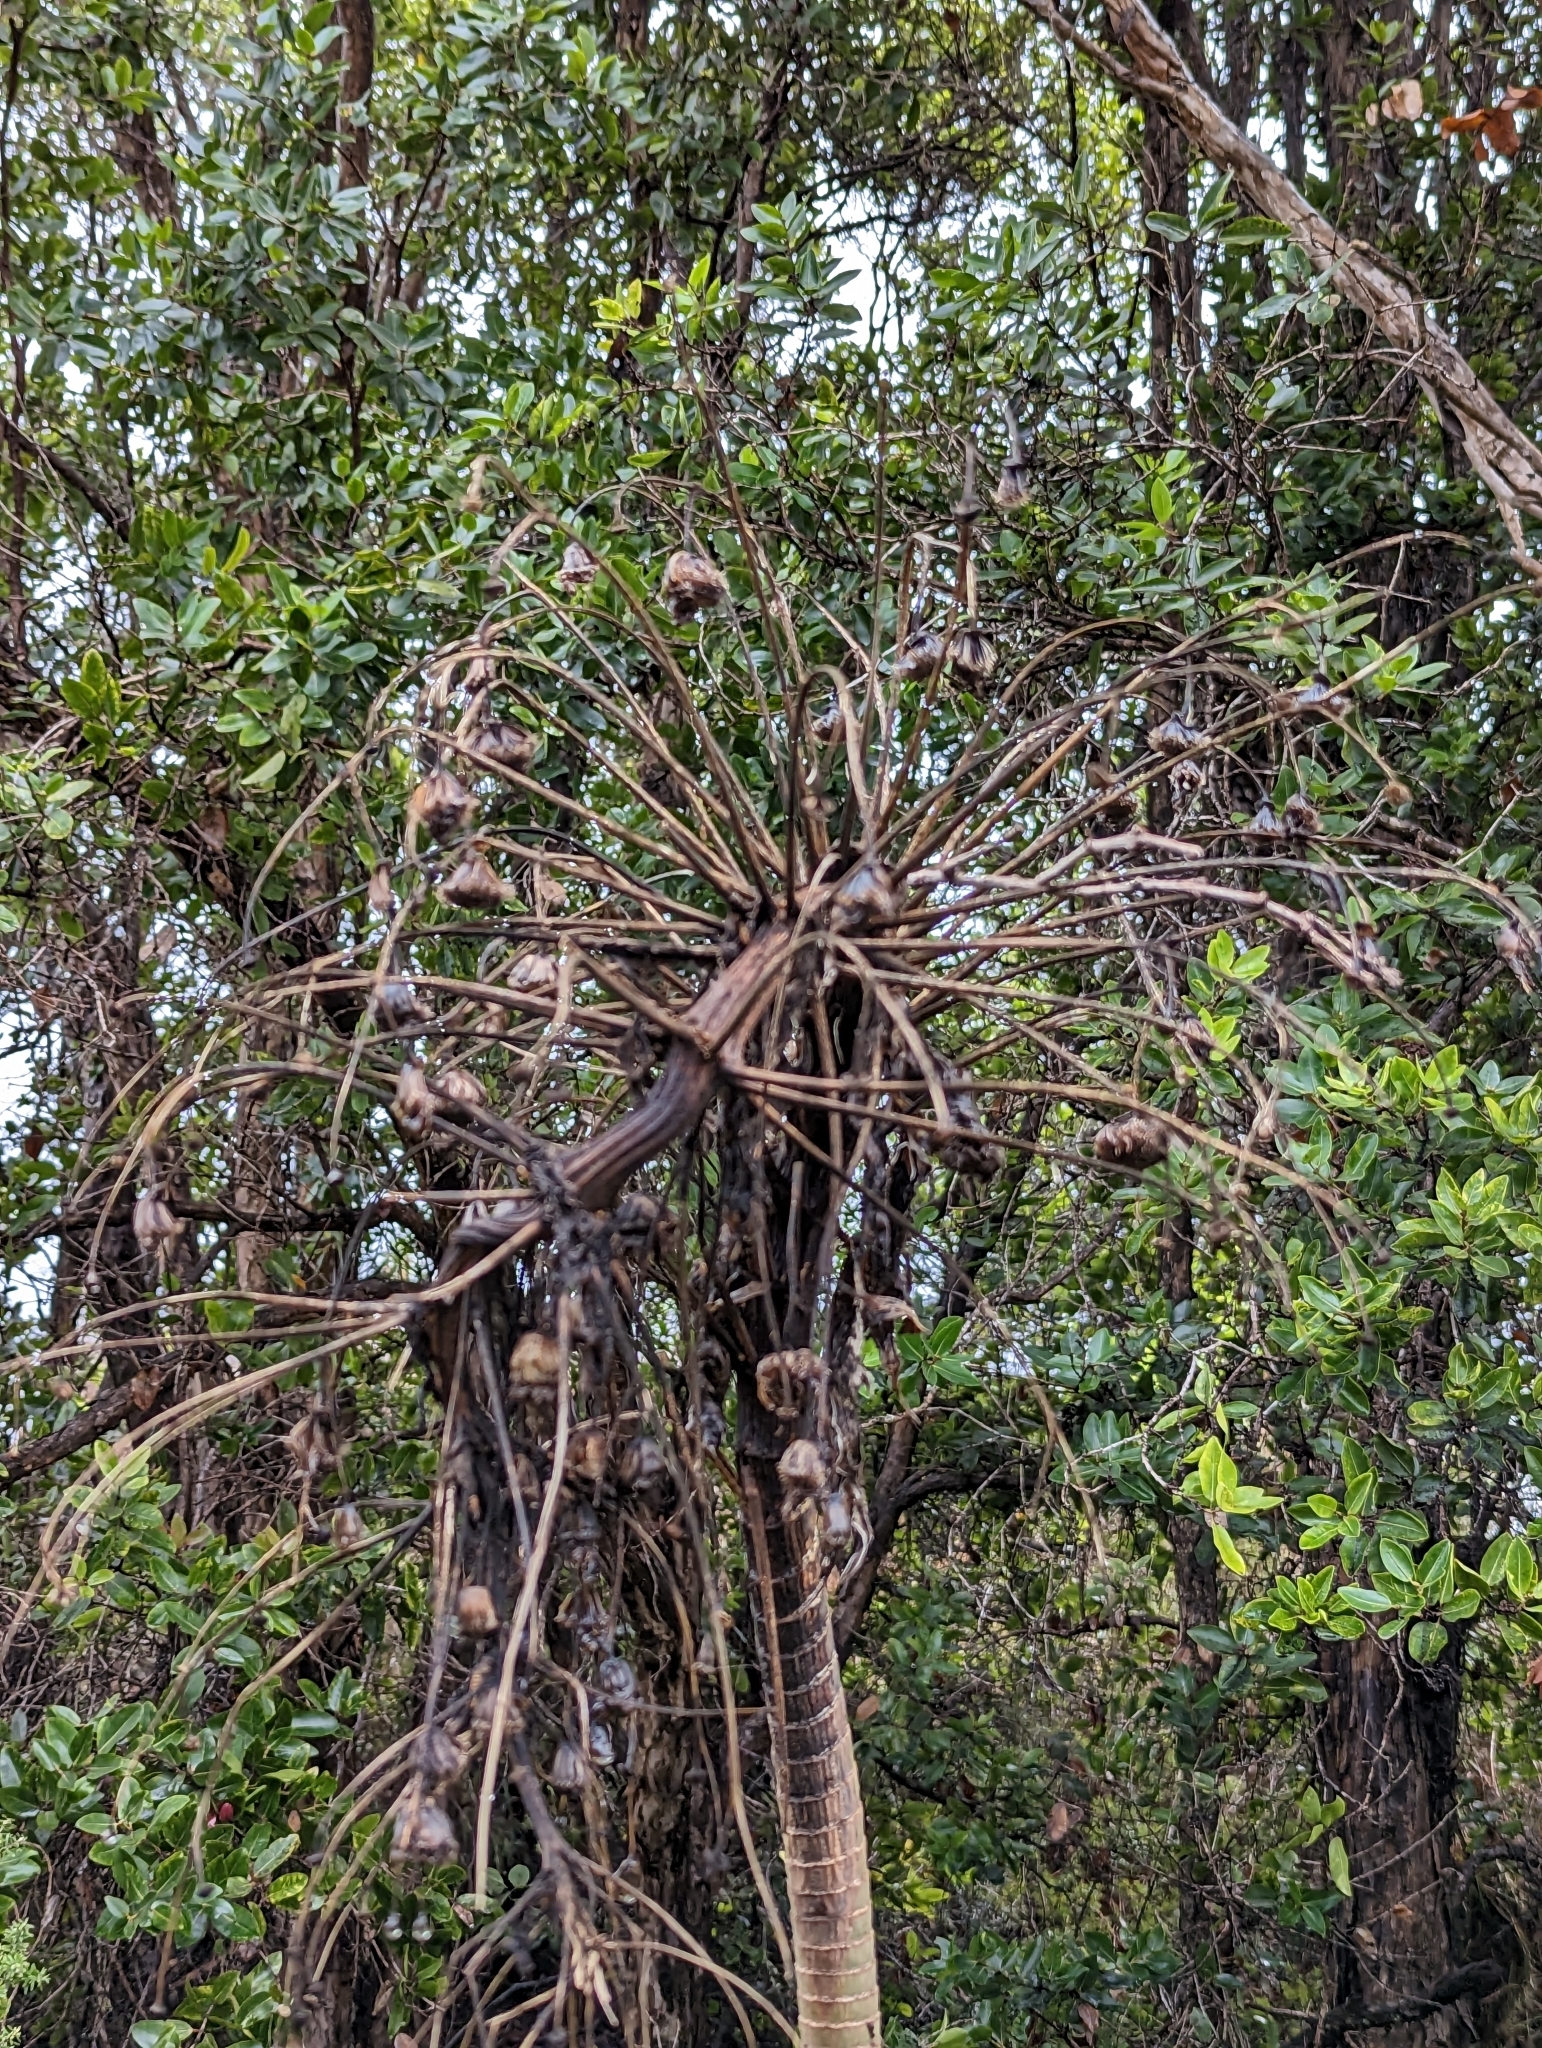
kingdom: Plantae
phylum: Tracheophyta
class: Magnoliopsida
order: Asterales
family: Asteraceae
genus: Wilkesia
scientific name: Wilkesia gymnoxiphium
